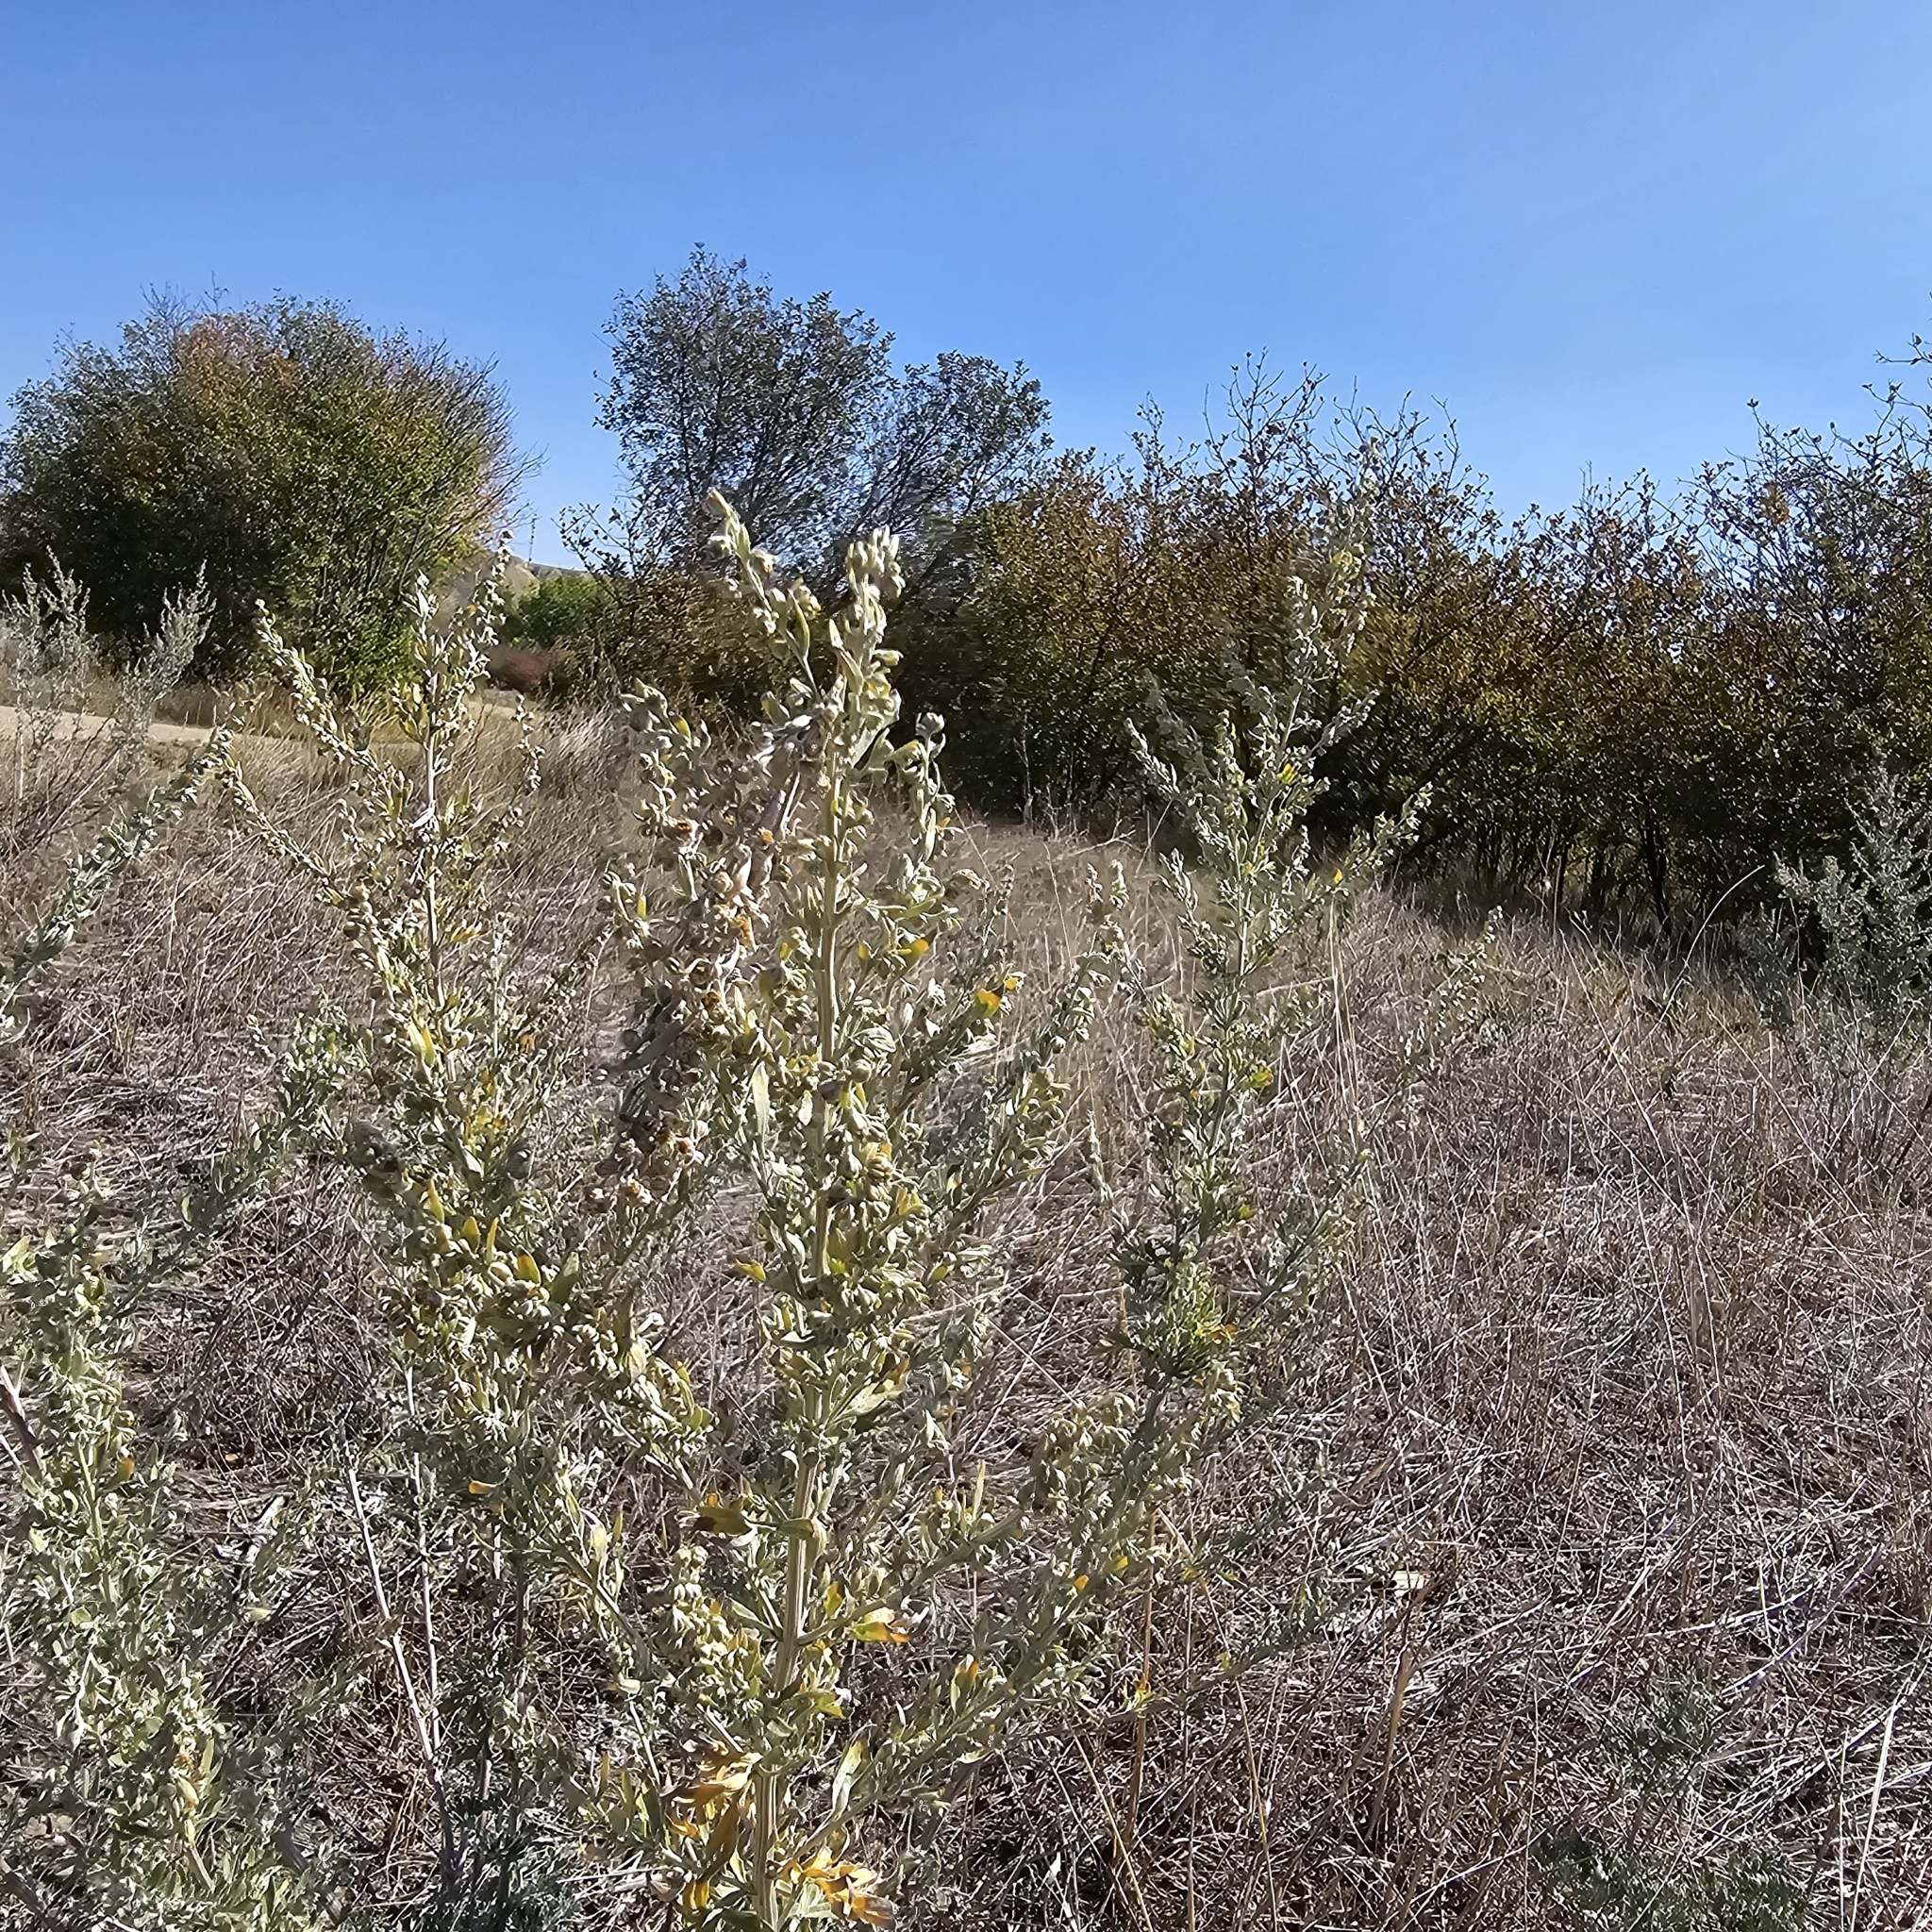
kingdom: Plantae
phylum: Tracheophyta
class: Magnoliopsida
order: Asterales
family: Asteraceae
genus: Artemisia
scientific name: Artemisia absinthium
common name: Wormwood
